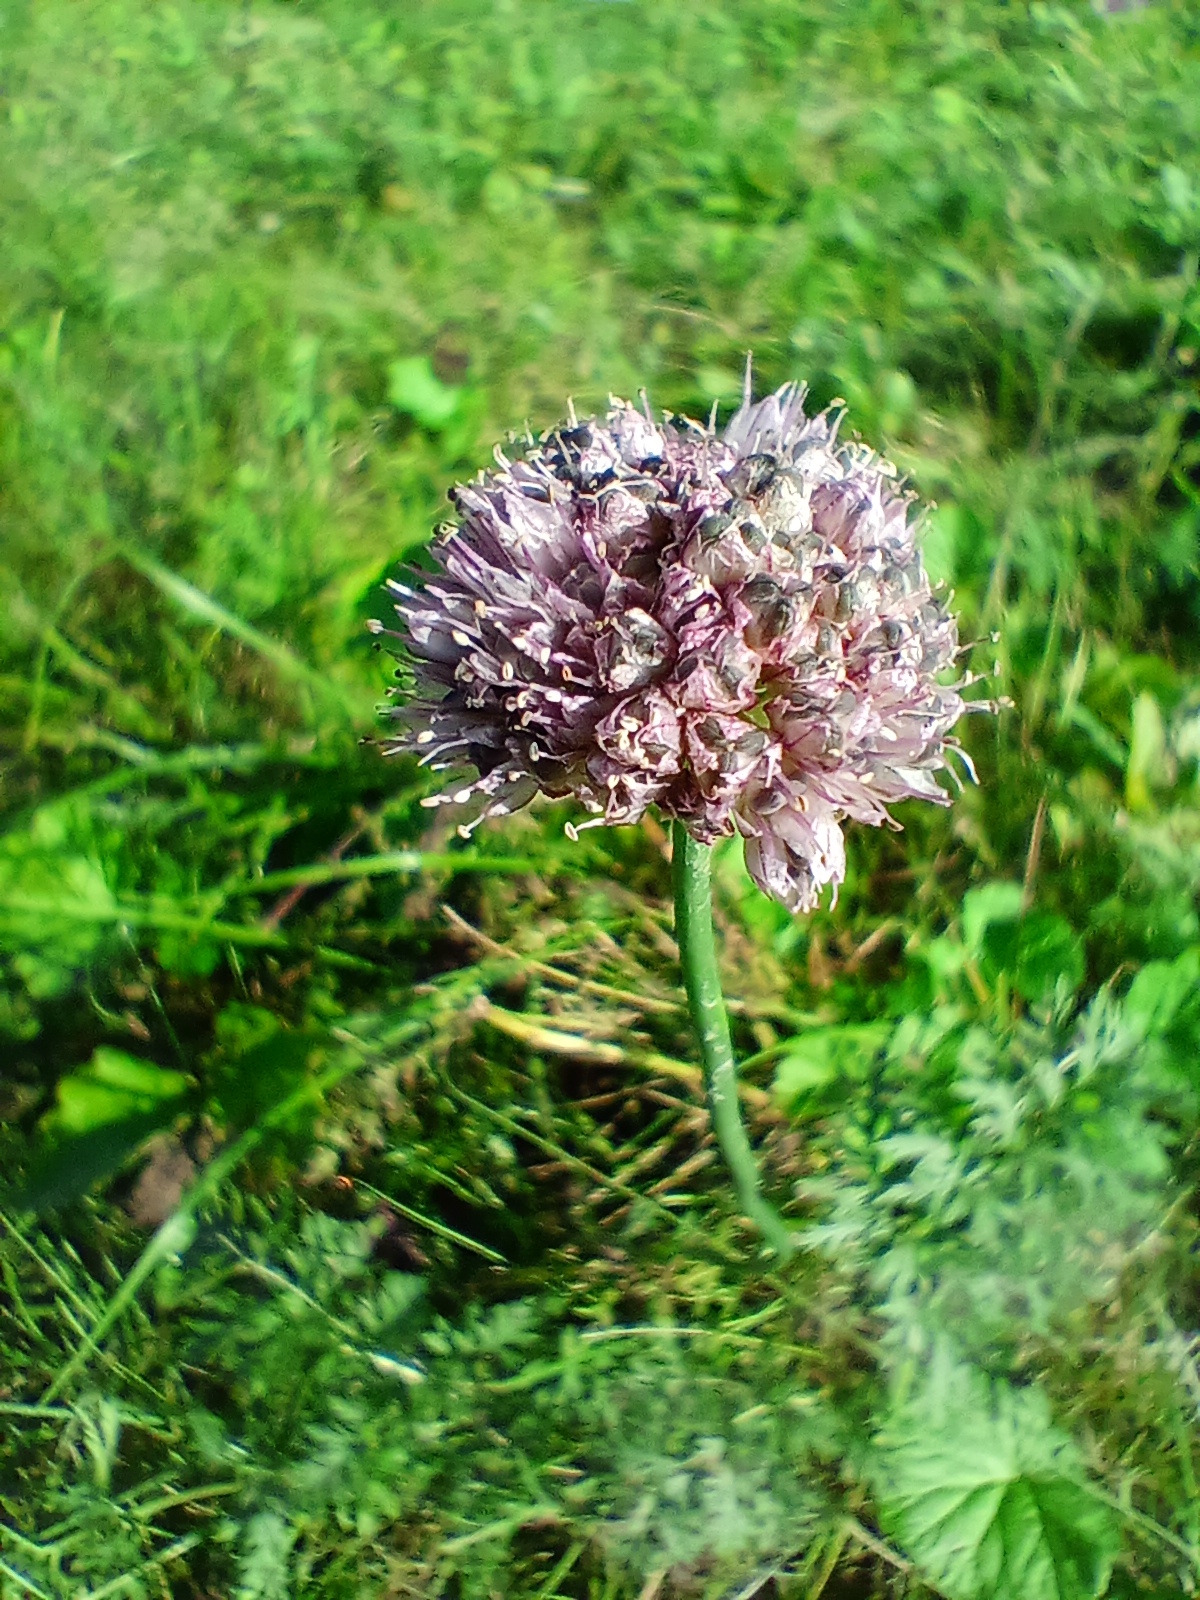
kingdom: Plantae
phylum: Tracheophyta
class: Liliopsida
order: Asparagales
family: Amaryllidaceae
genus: Allium
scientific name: Allium strictum
